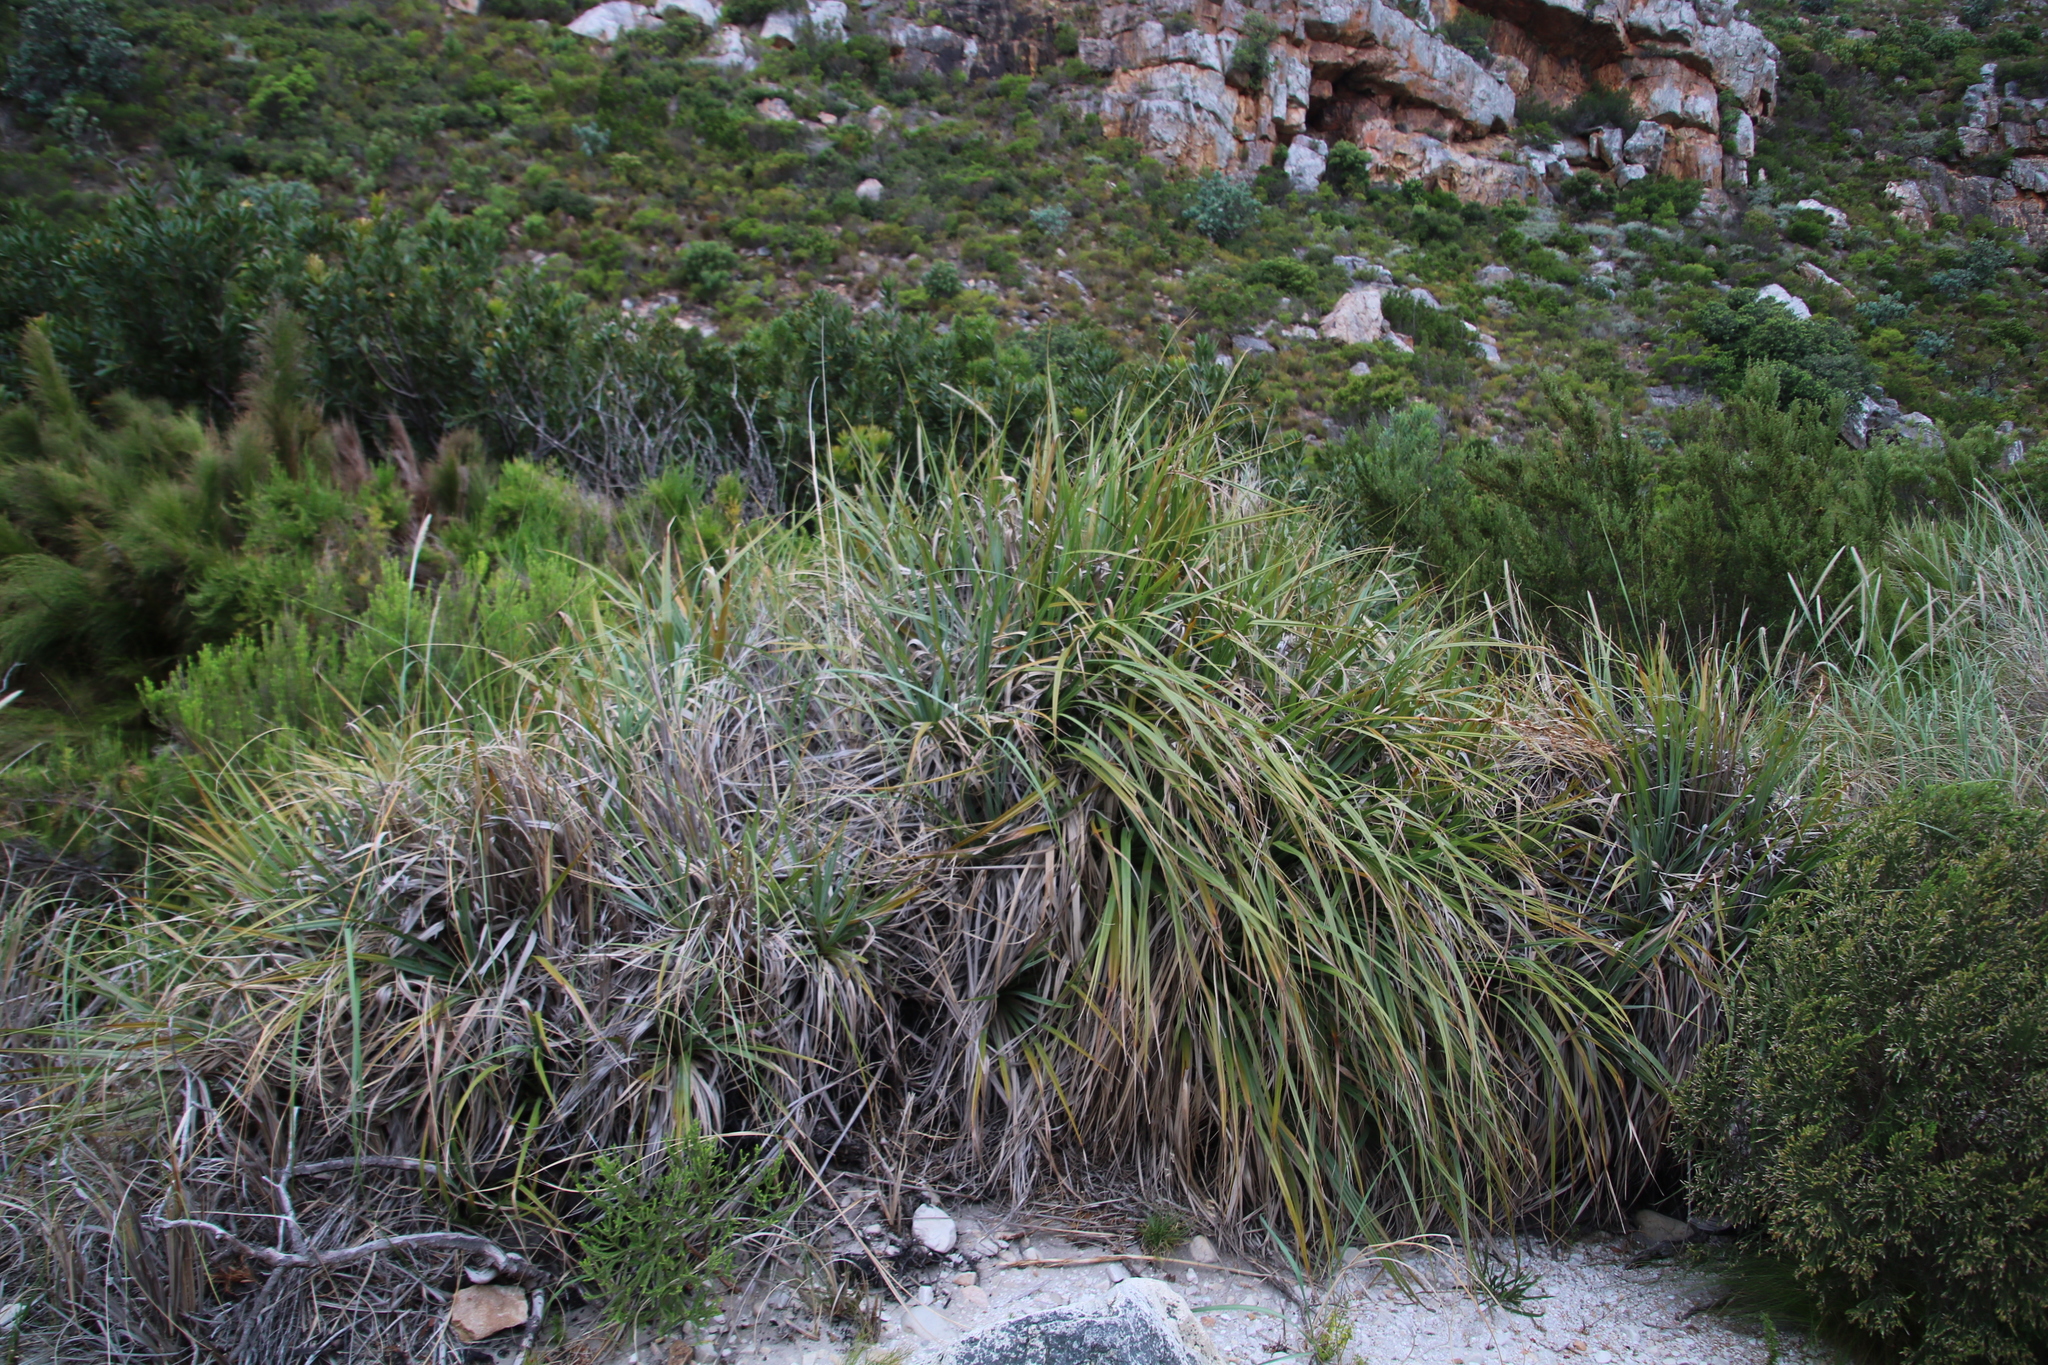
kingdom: Plantae
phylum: Tracheophyta
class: Liliopsida
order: Poales
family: Thurniaceae
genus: Prionium
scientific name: Prionium serratum
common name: Palmiet
